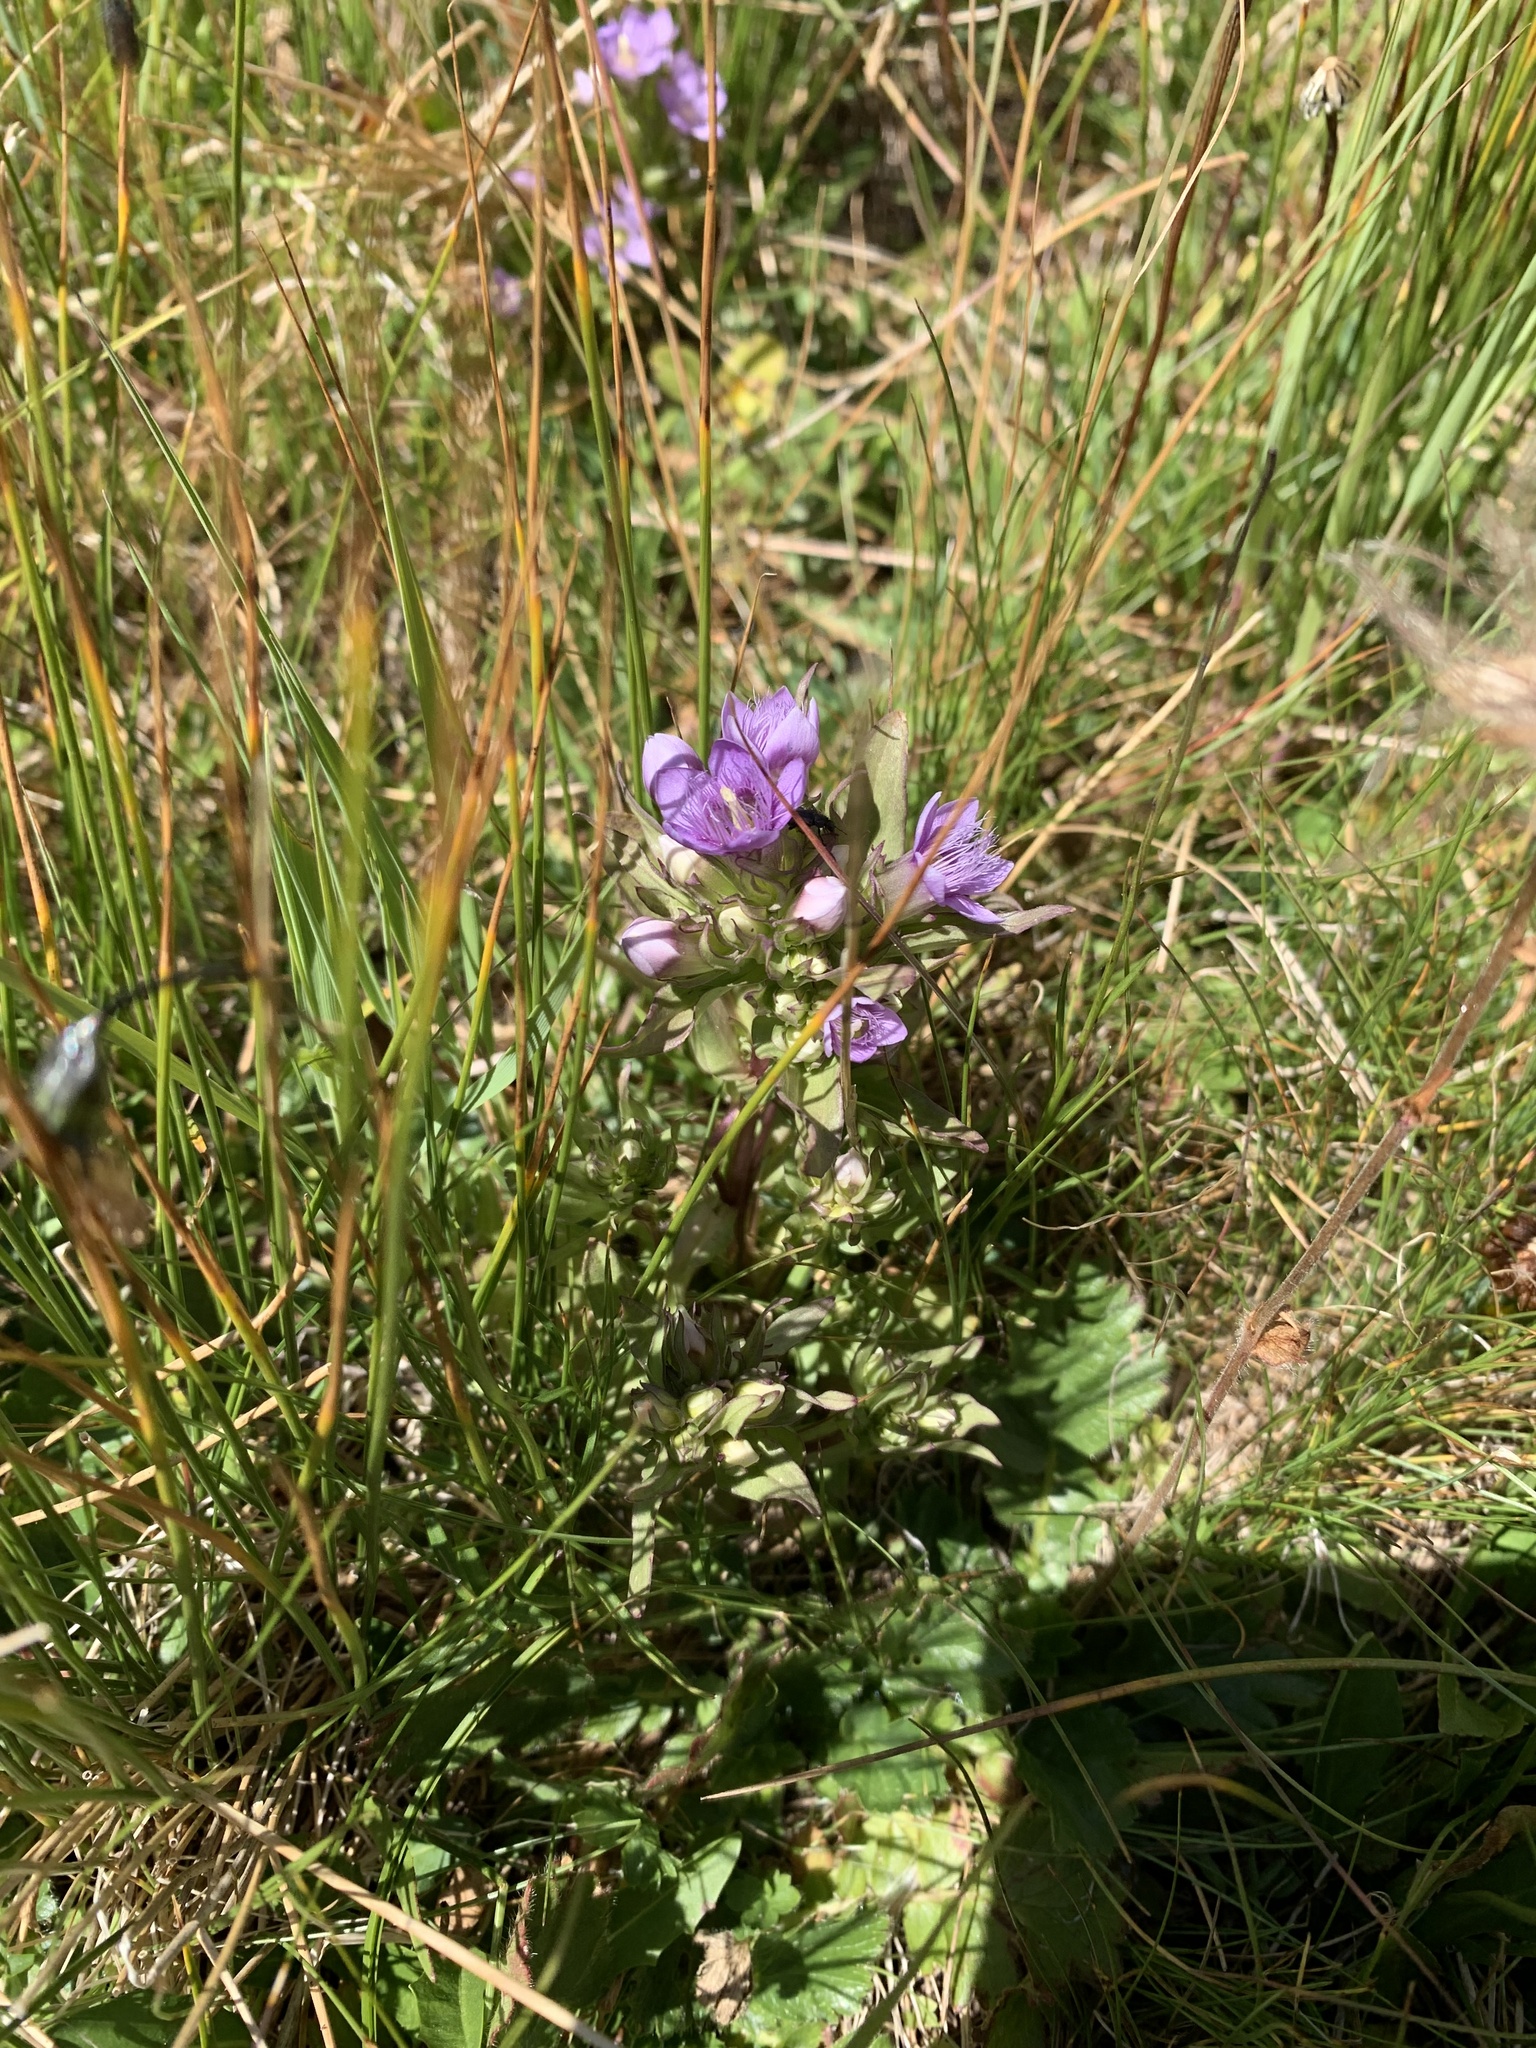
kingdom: Plantae
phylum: Tracheophyta
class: Magnoliopsida
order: Gentianales
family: Gentianaceae
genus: Gentianella
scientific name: Gentianella ramosa
